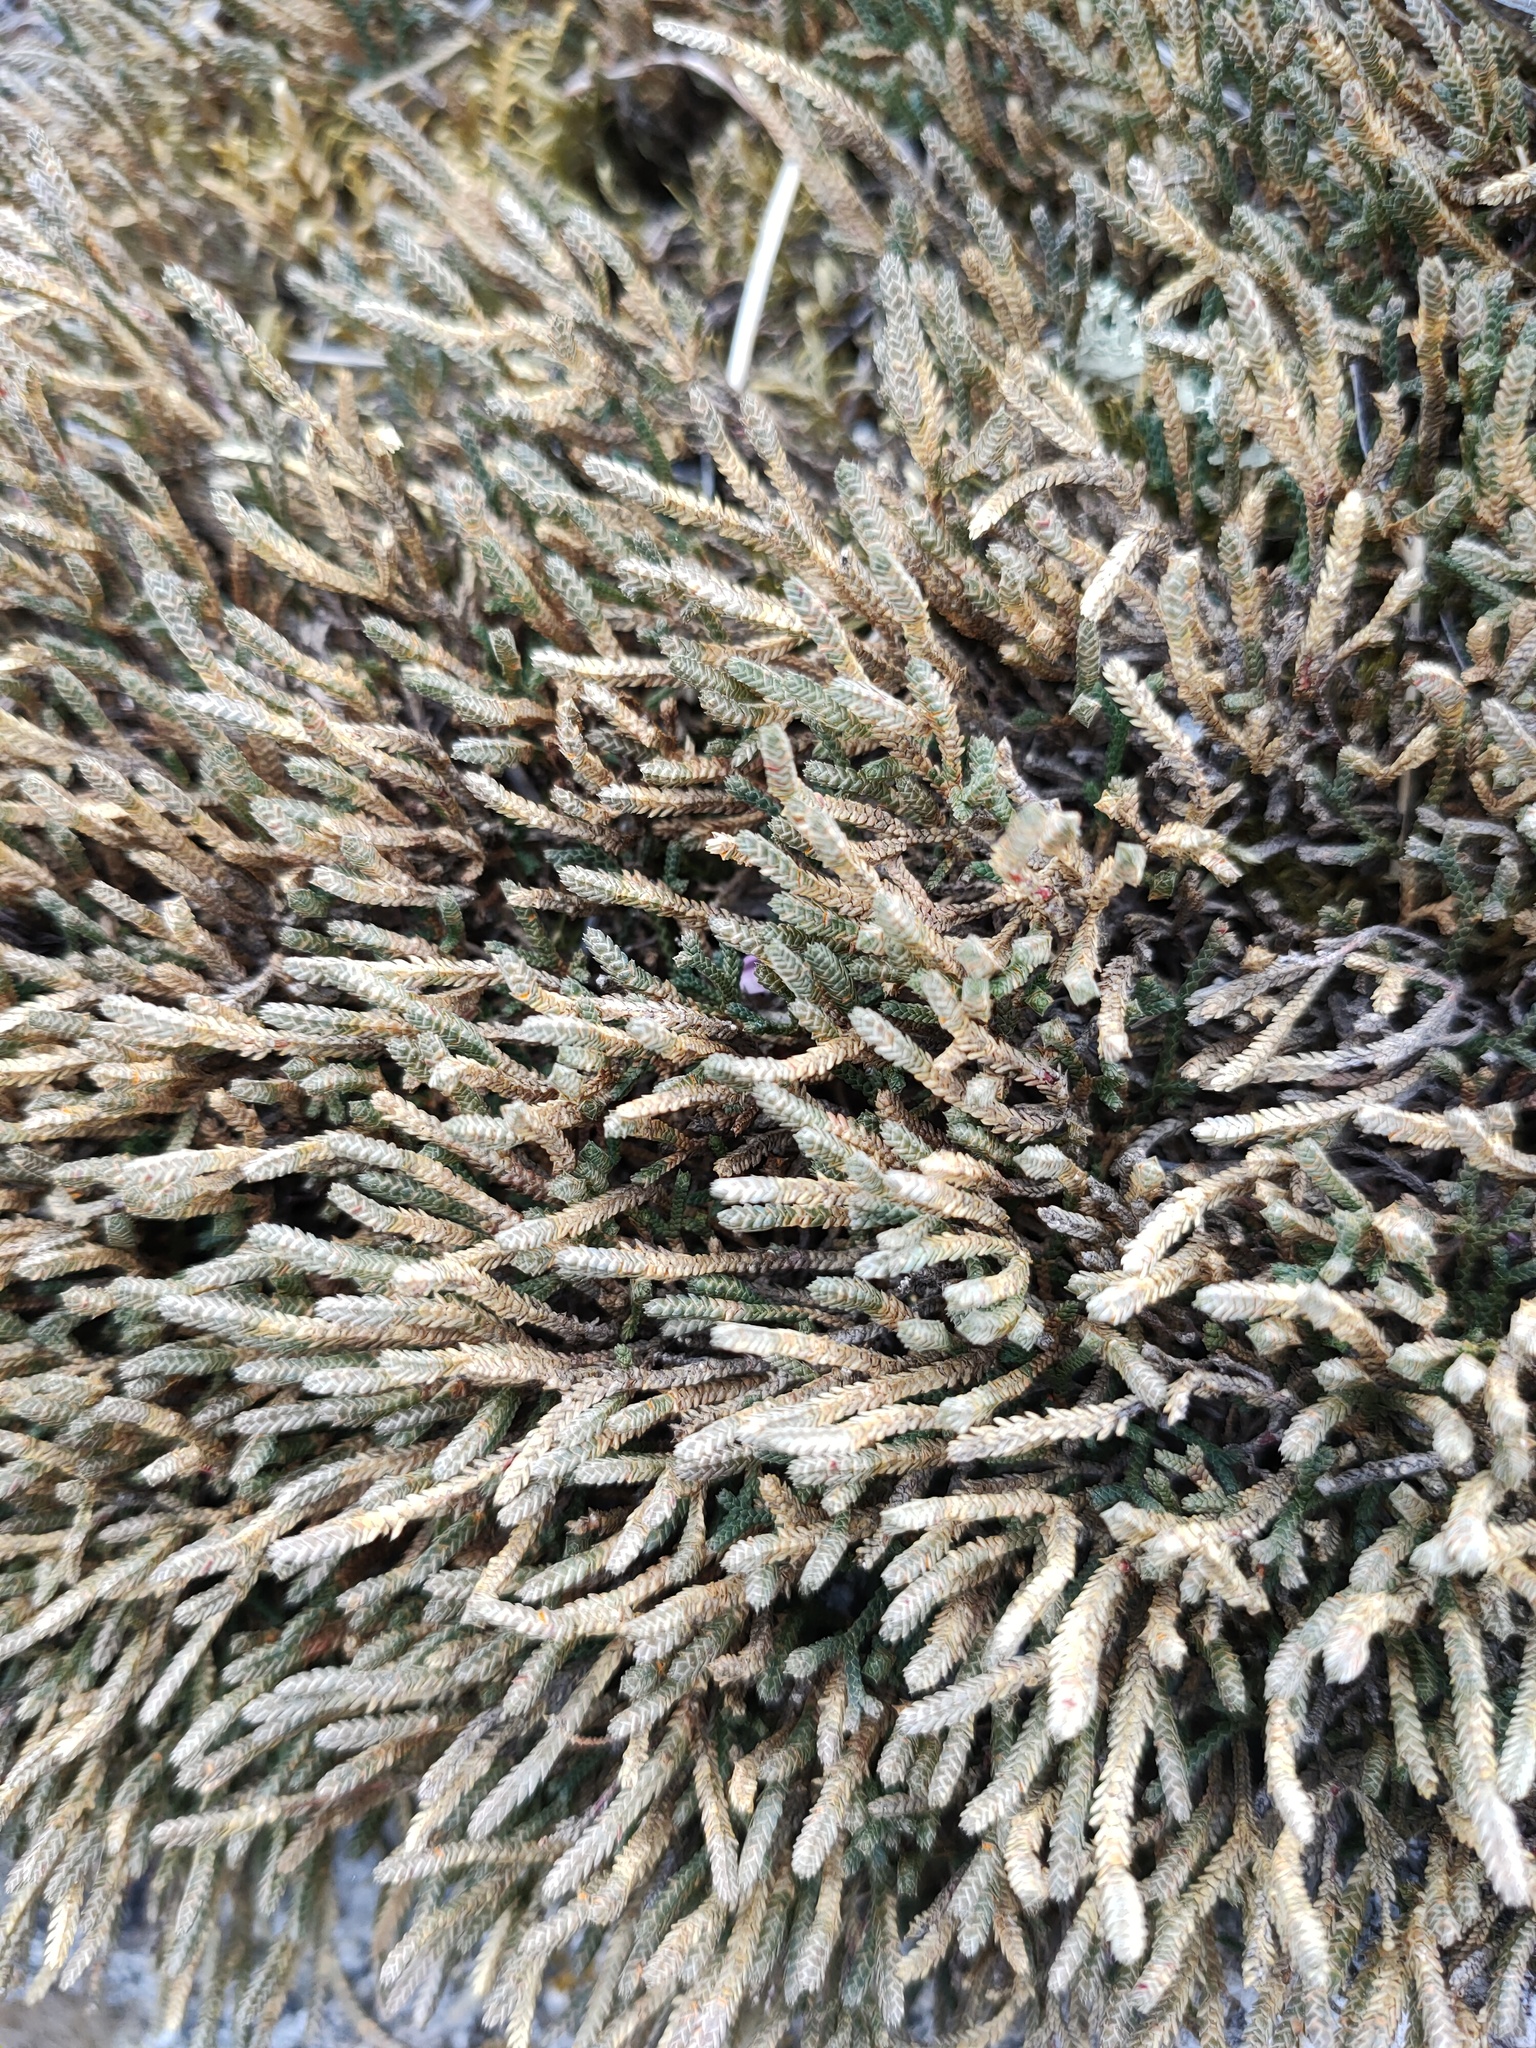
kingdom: Plantae
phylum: Tracheophyta
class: Lycopodiopsida
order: Selaginellales
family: Selaginellaceae
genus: Selaginella
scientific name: Selaginella rupestris
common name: Dwarf spikemoss
